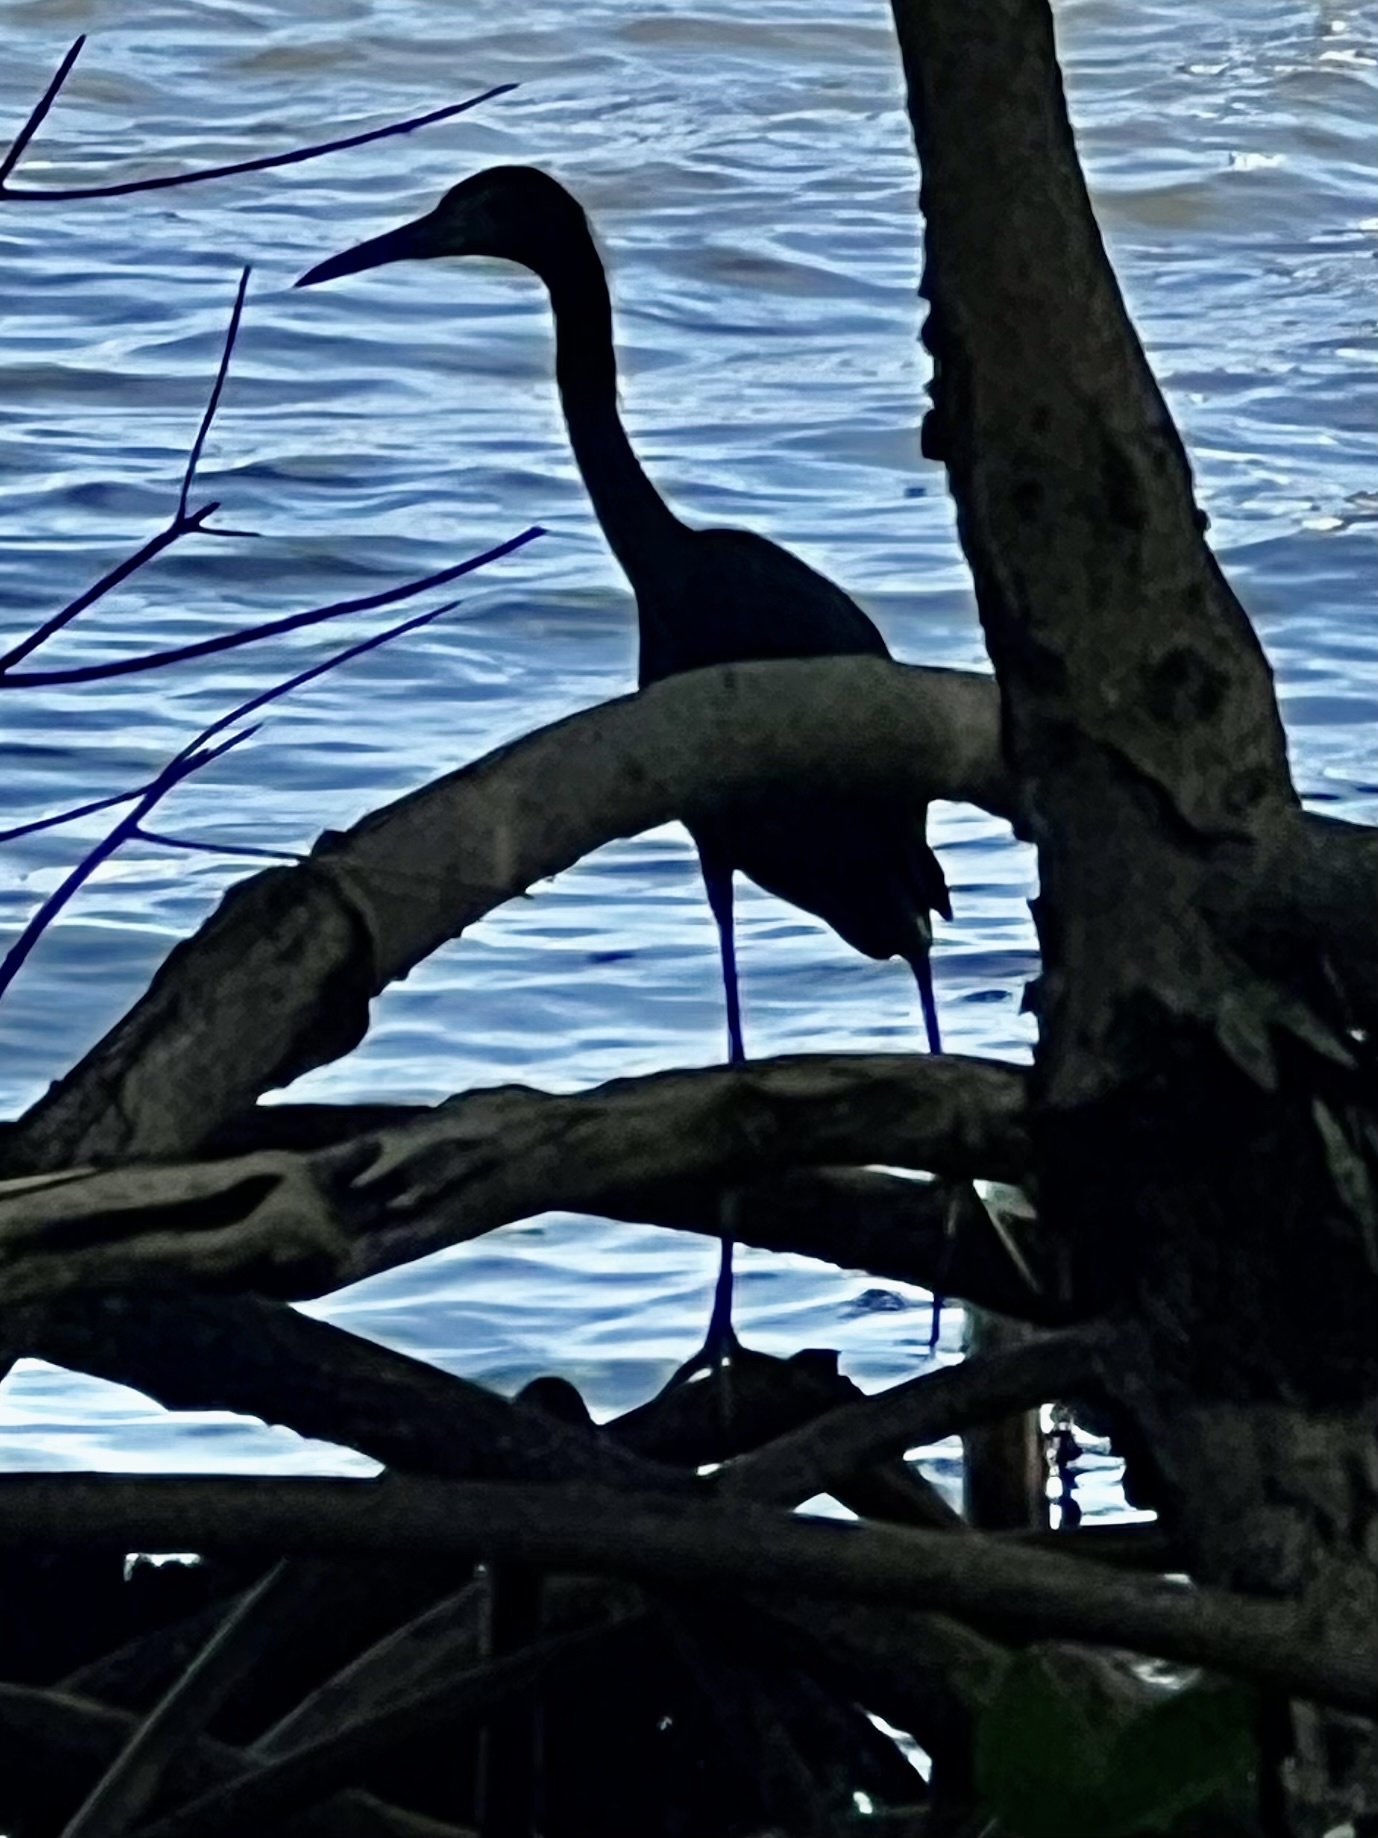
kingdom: Animalia
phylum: Chordata
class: Aves
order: Pelecaniformes
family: Ardeidae
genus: Egretta
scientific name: Egretta caerulea
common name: Little blue heron
